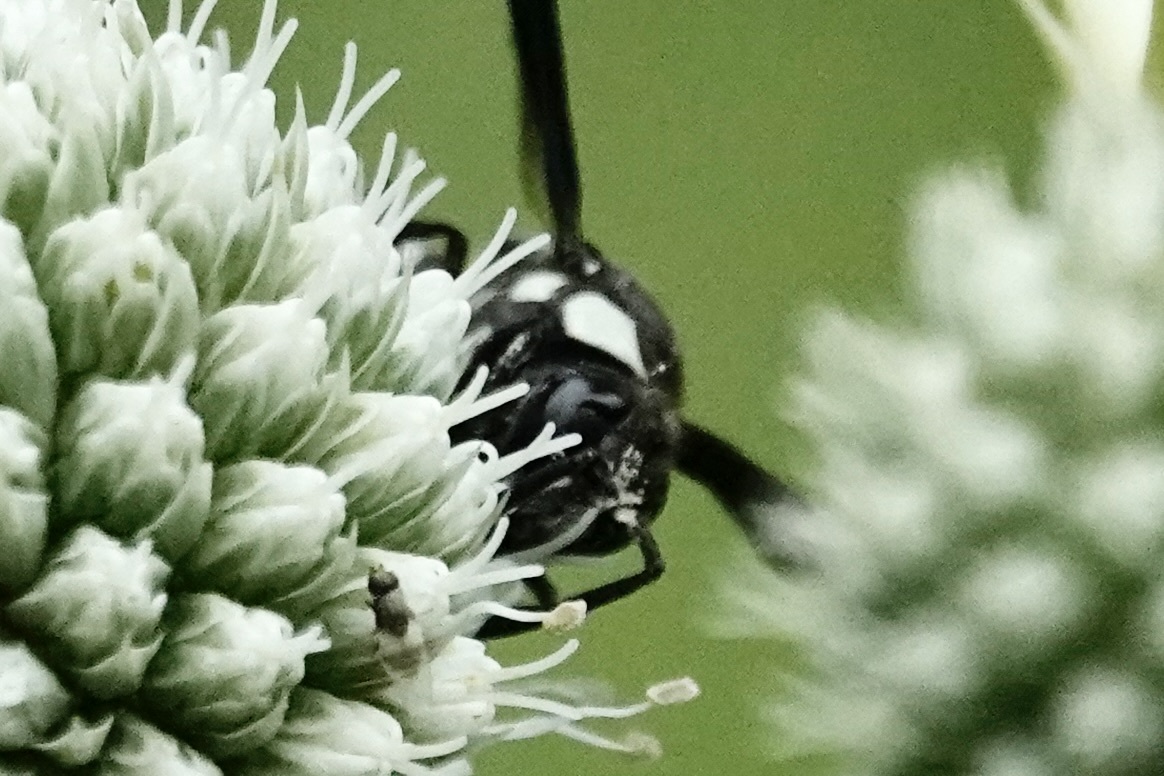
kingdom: Animalia
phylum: Arthropoda
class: Insecta
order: Hymenoptera
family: Eumenidae
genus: Pseudodynerus
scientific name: Pseudodynerus quadrisectus
